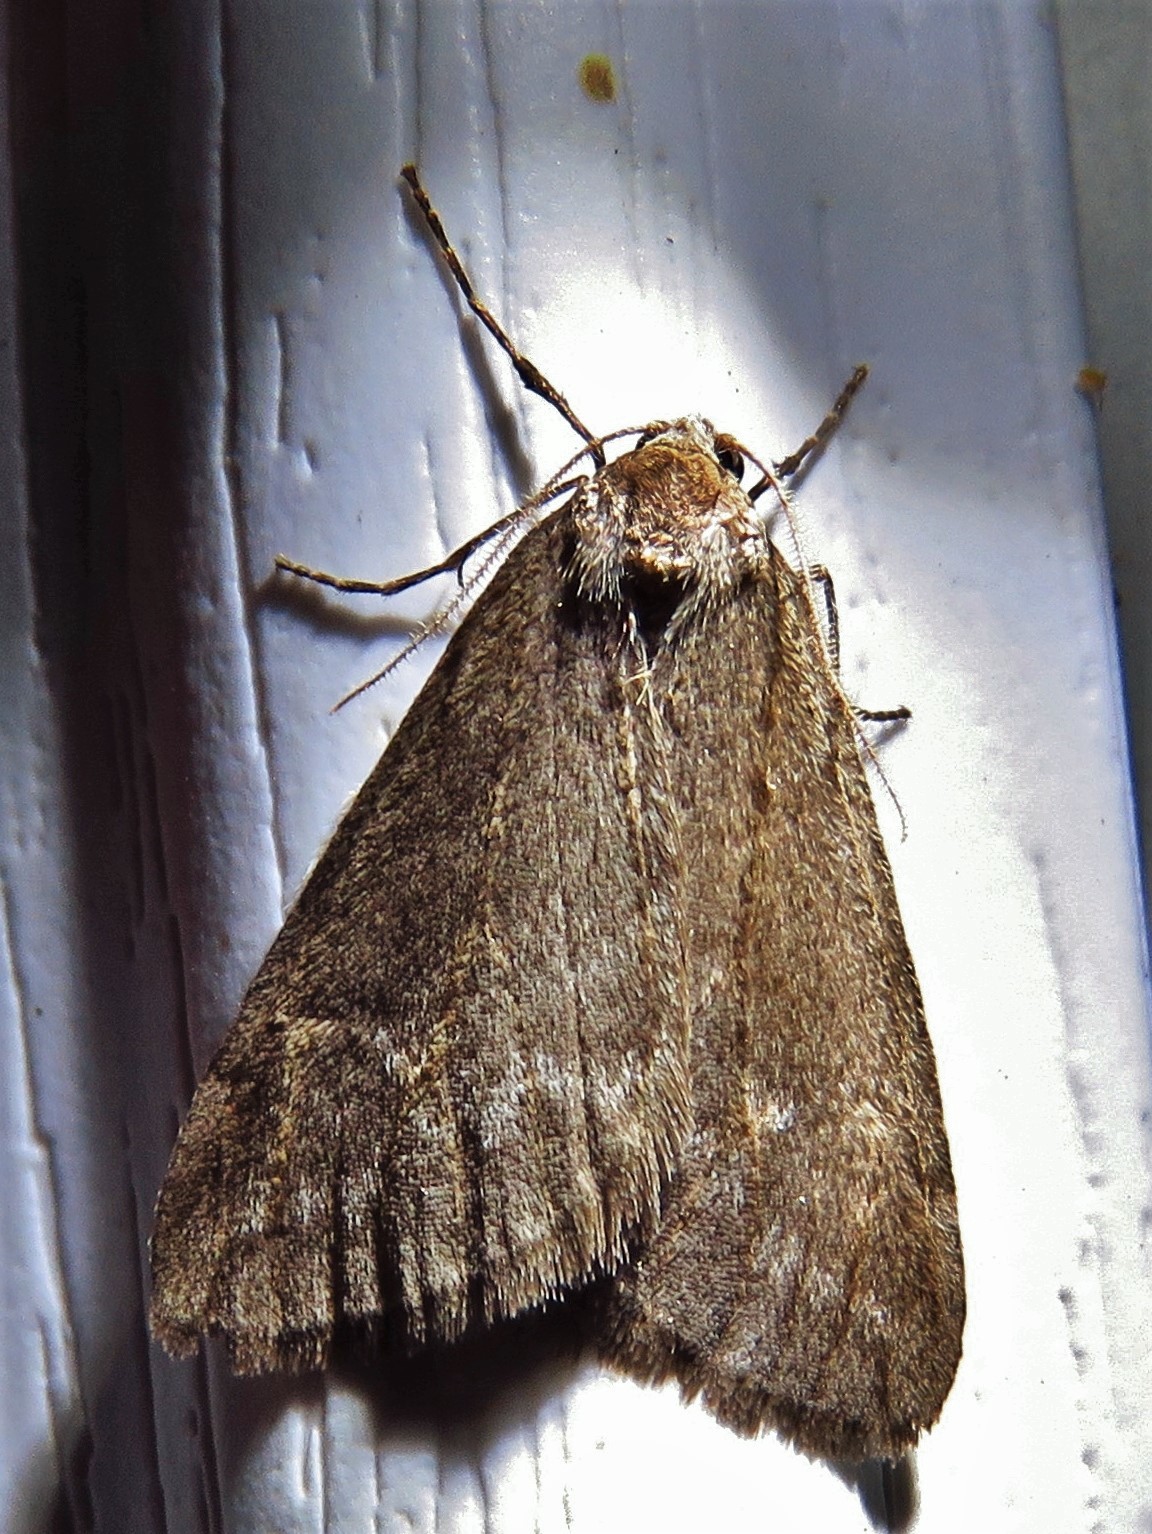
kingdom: Animalia
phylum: Arthropoda
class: Insecta
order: Lepidoptera
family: Geometridae
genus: Paleacrita
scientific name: Paleacrita vernata
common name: Spring cankerworm
